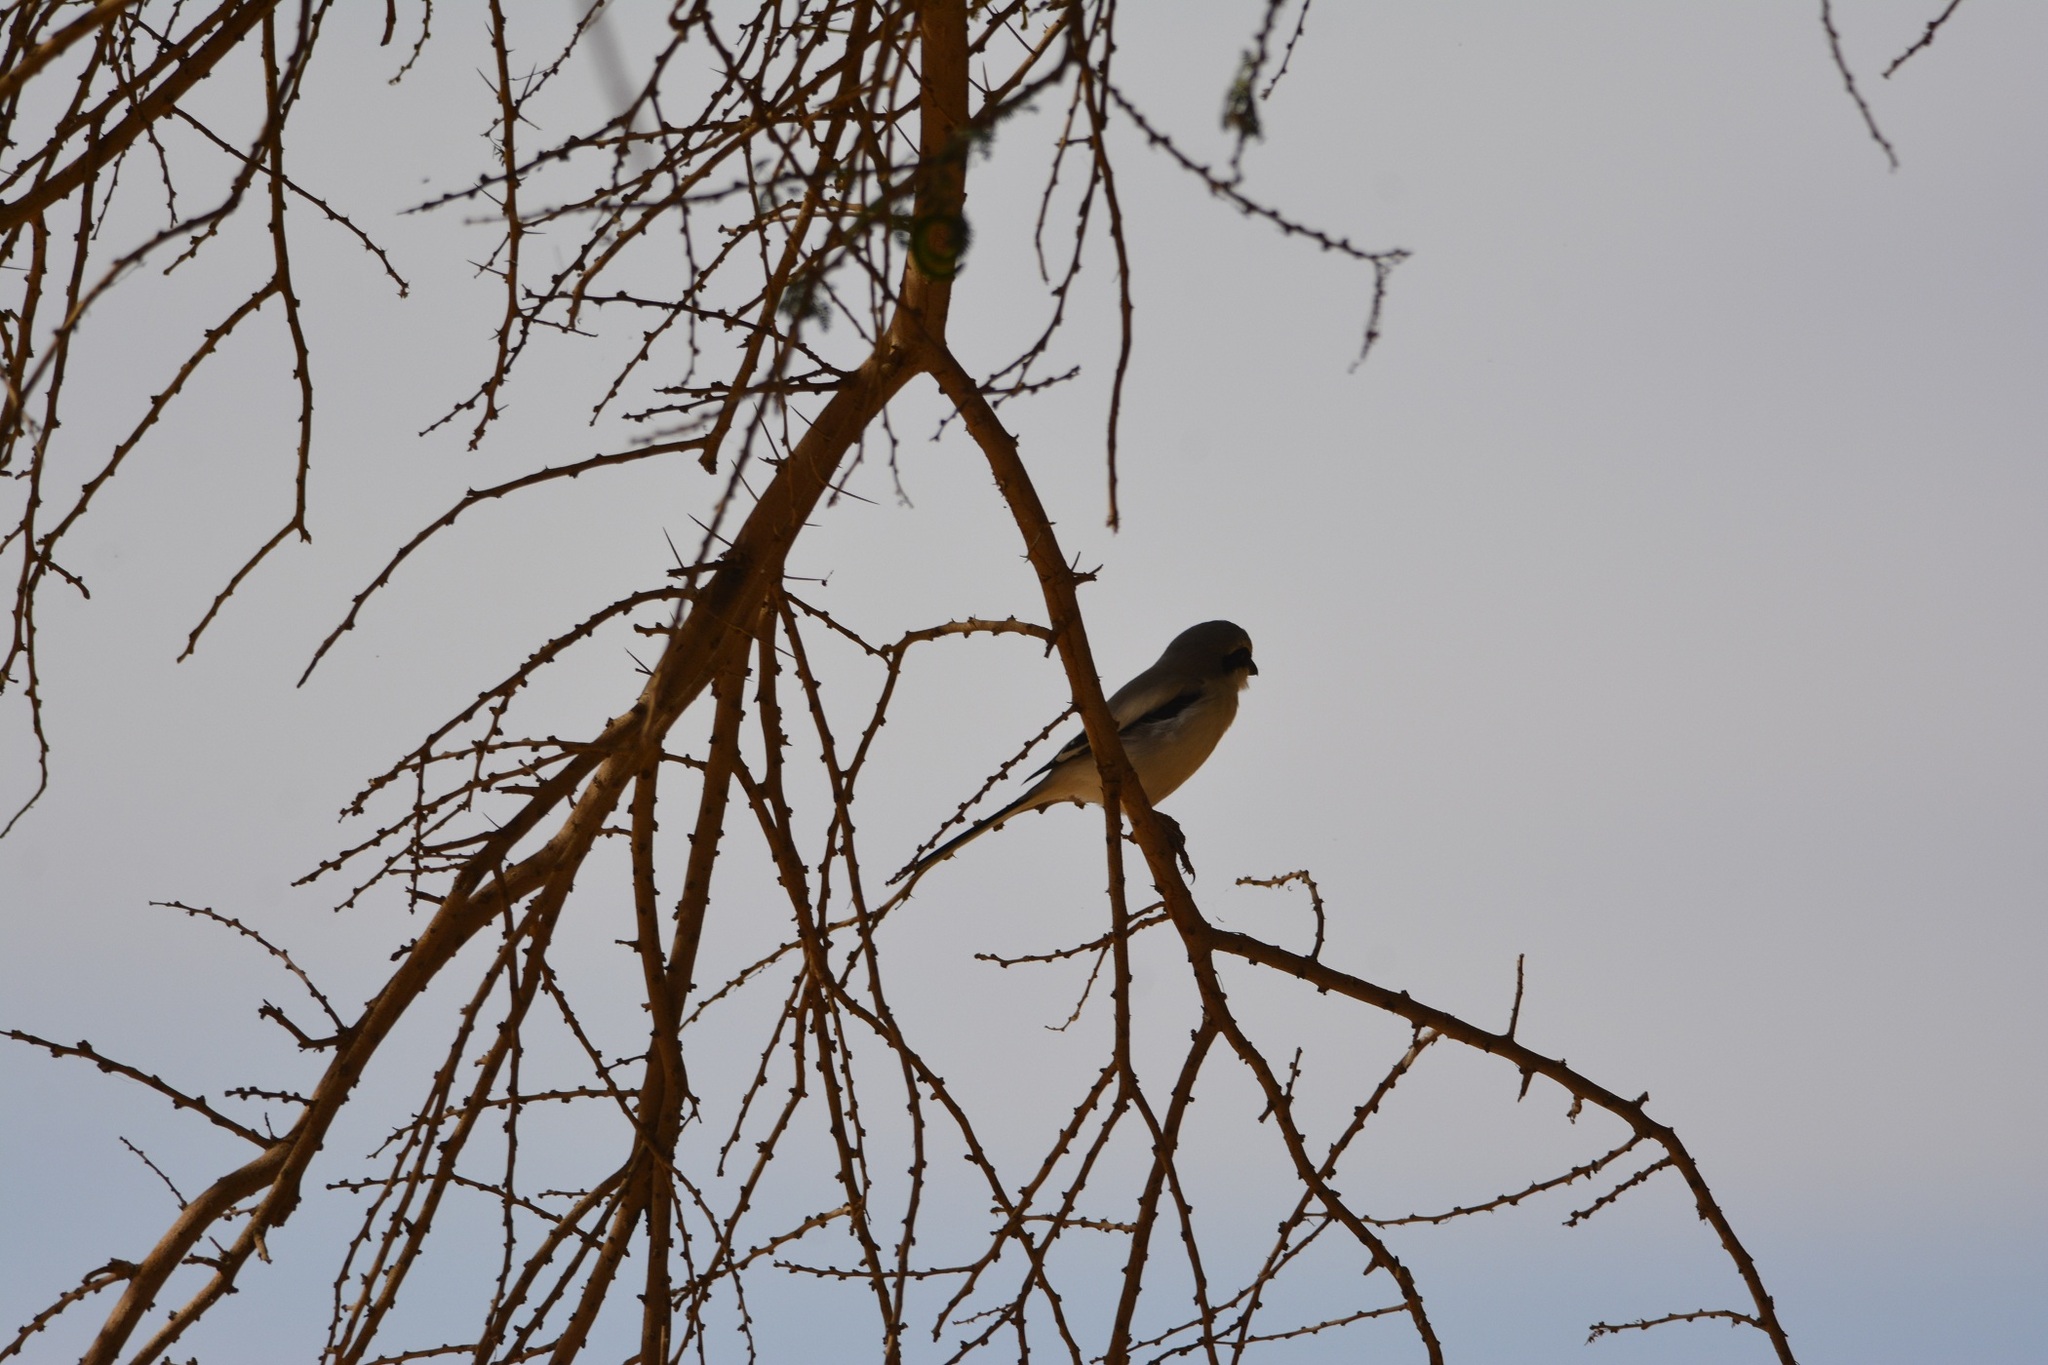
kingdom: Animalia
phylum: Chordata
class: Aves
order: Passeriformes
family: Laniidae
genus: Lanius
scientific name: Lanius excubitor
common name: Great grey shrike
